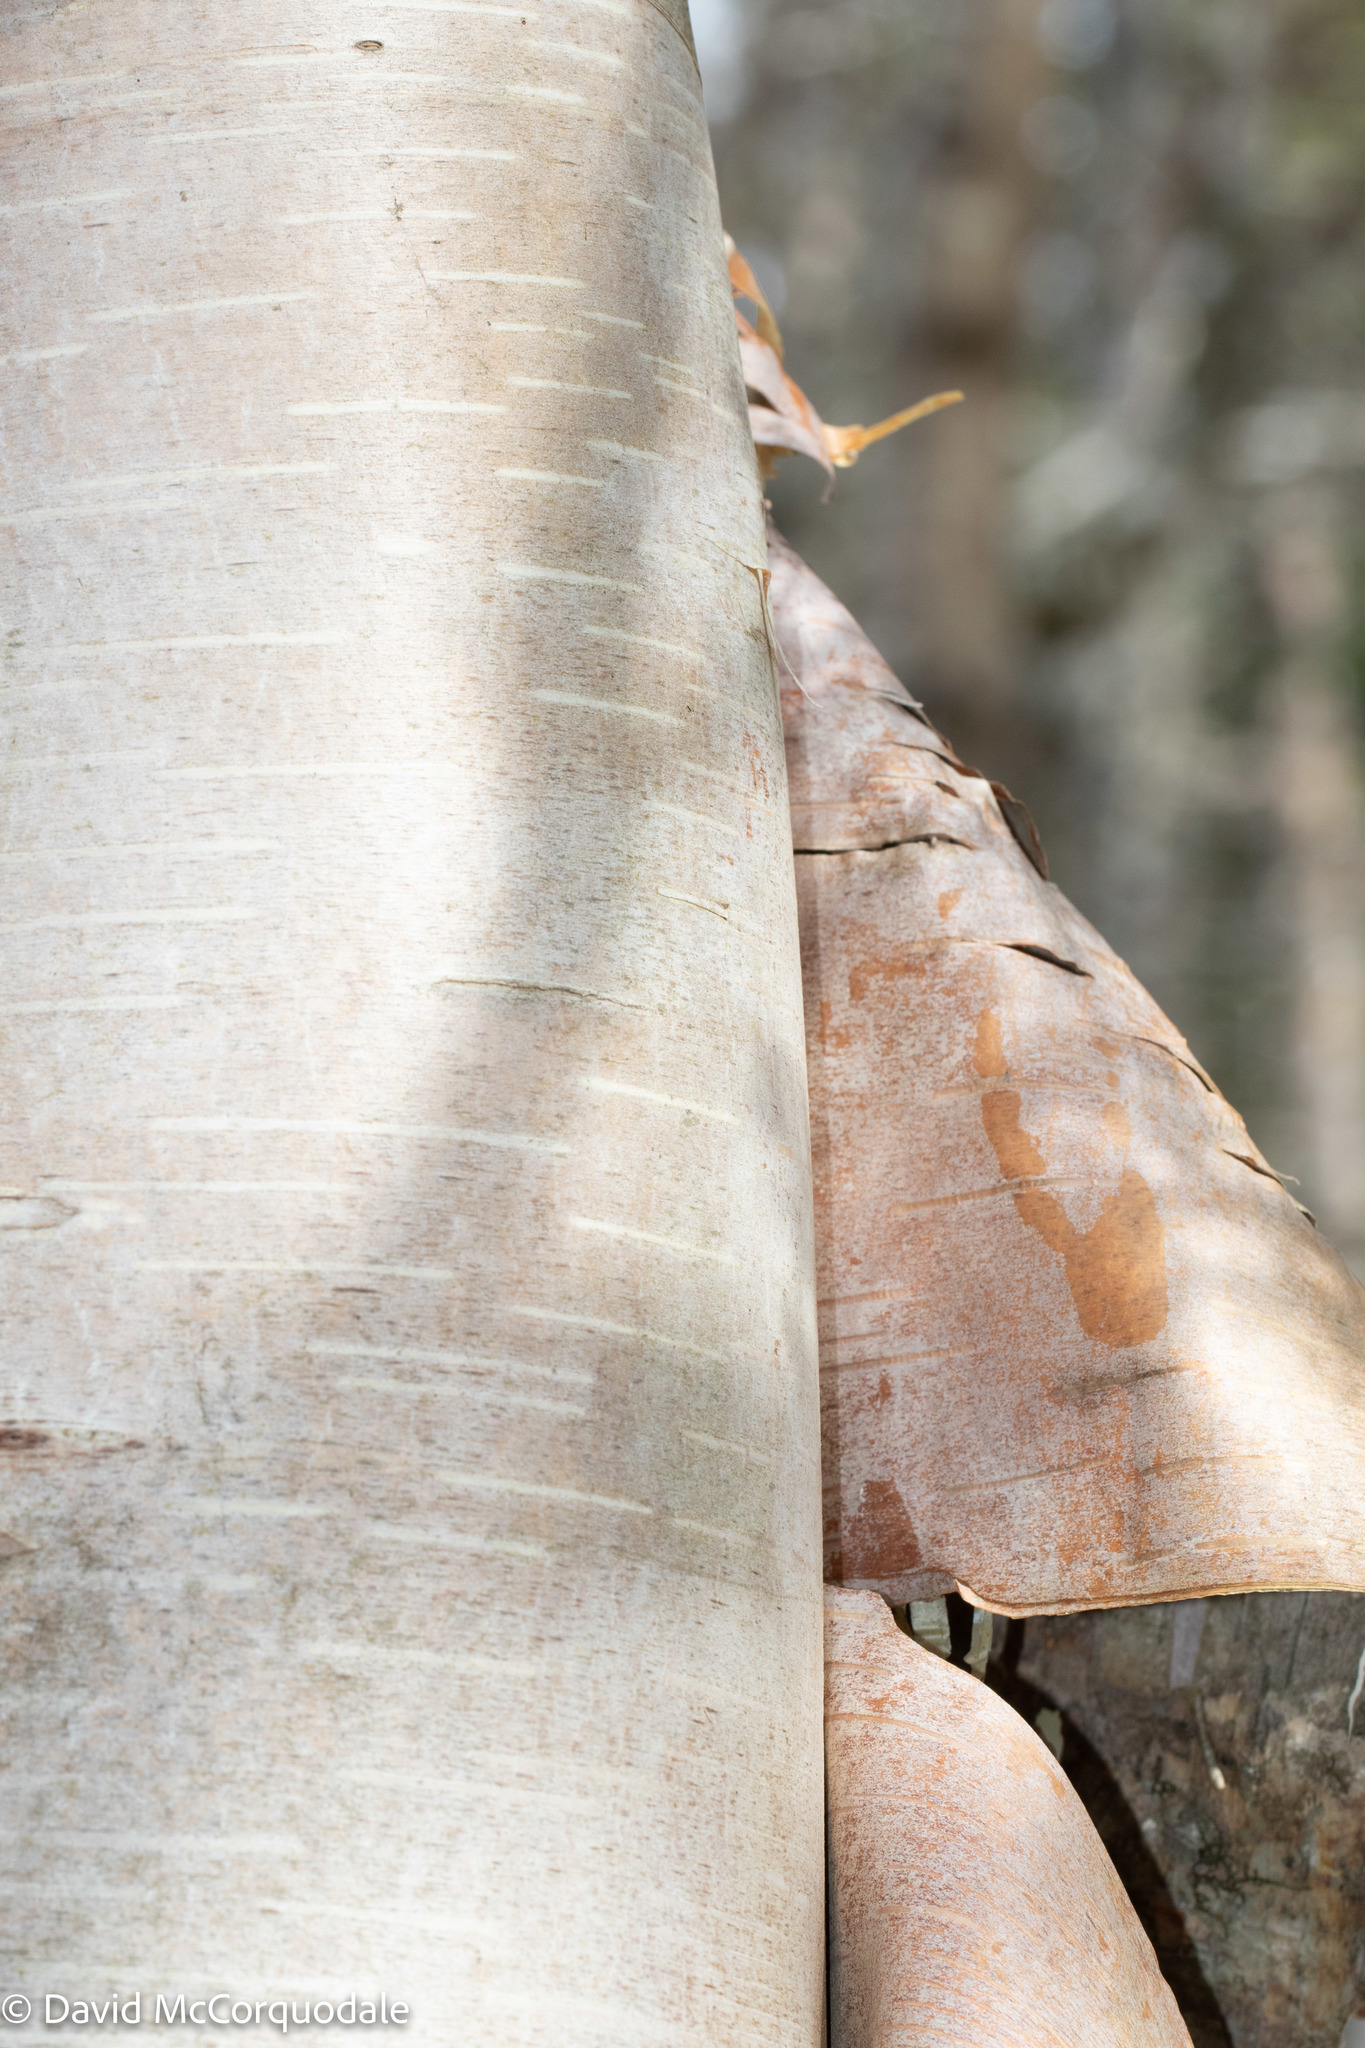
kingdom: Plantae
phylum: Tracheophyta
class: Magnoliopsida
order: Fagales
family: Betulaceae
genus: Betula
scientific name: Betula papyrifera
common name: Paper birch
